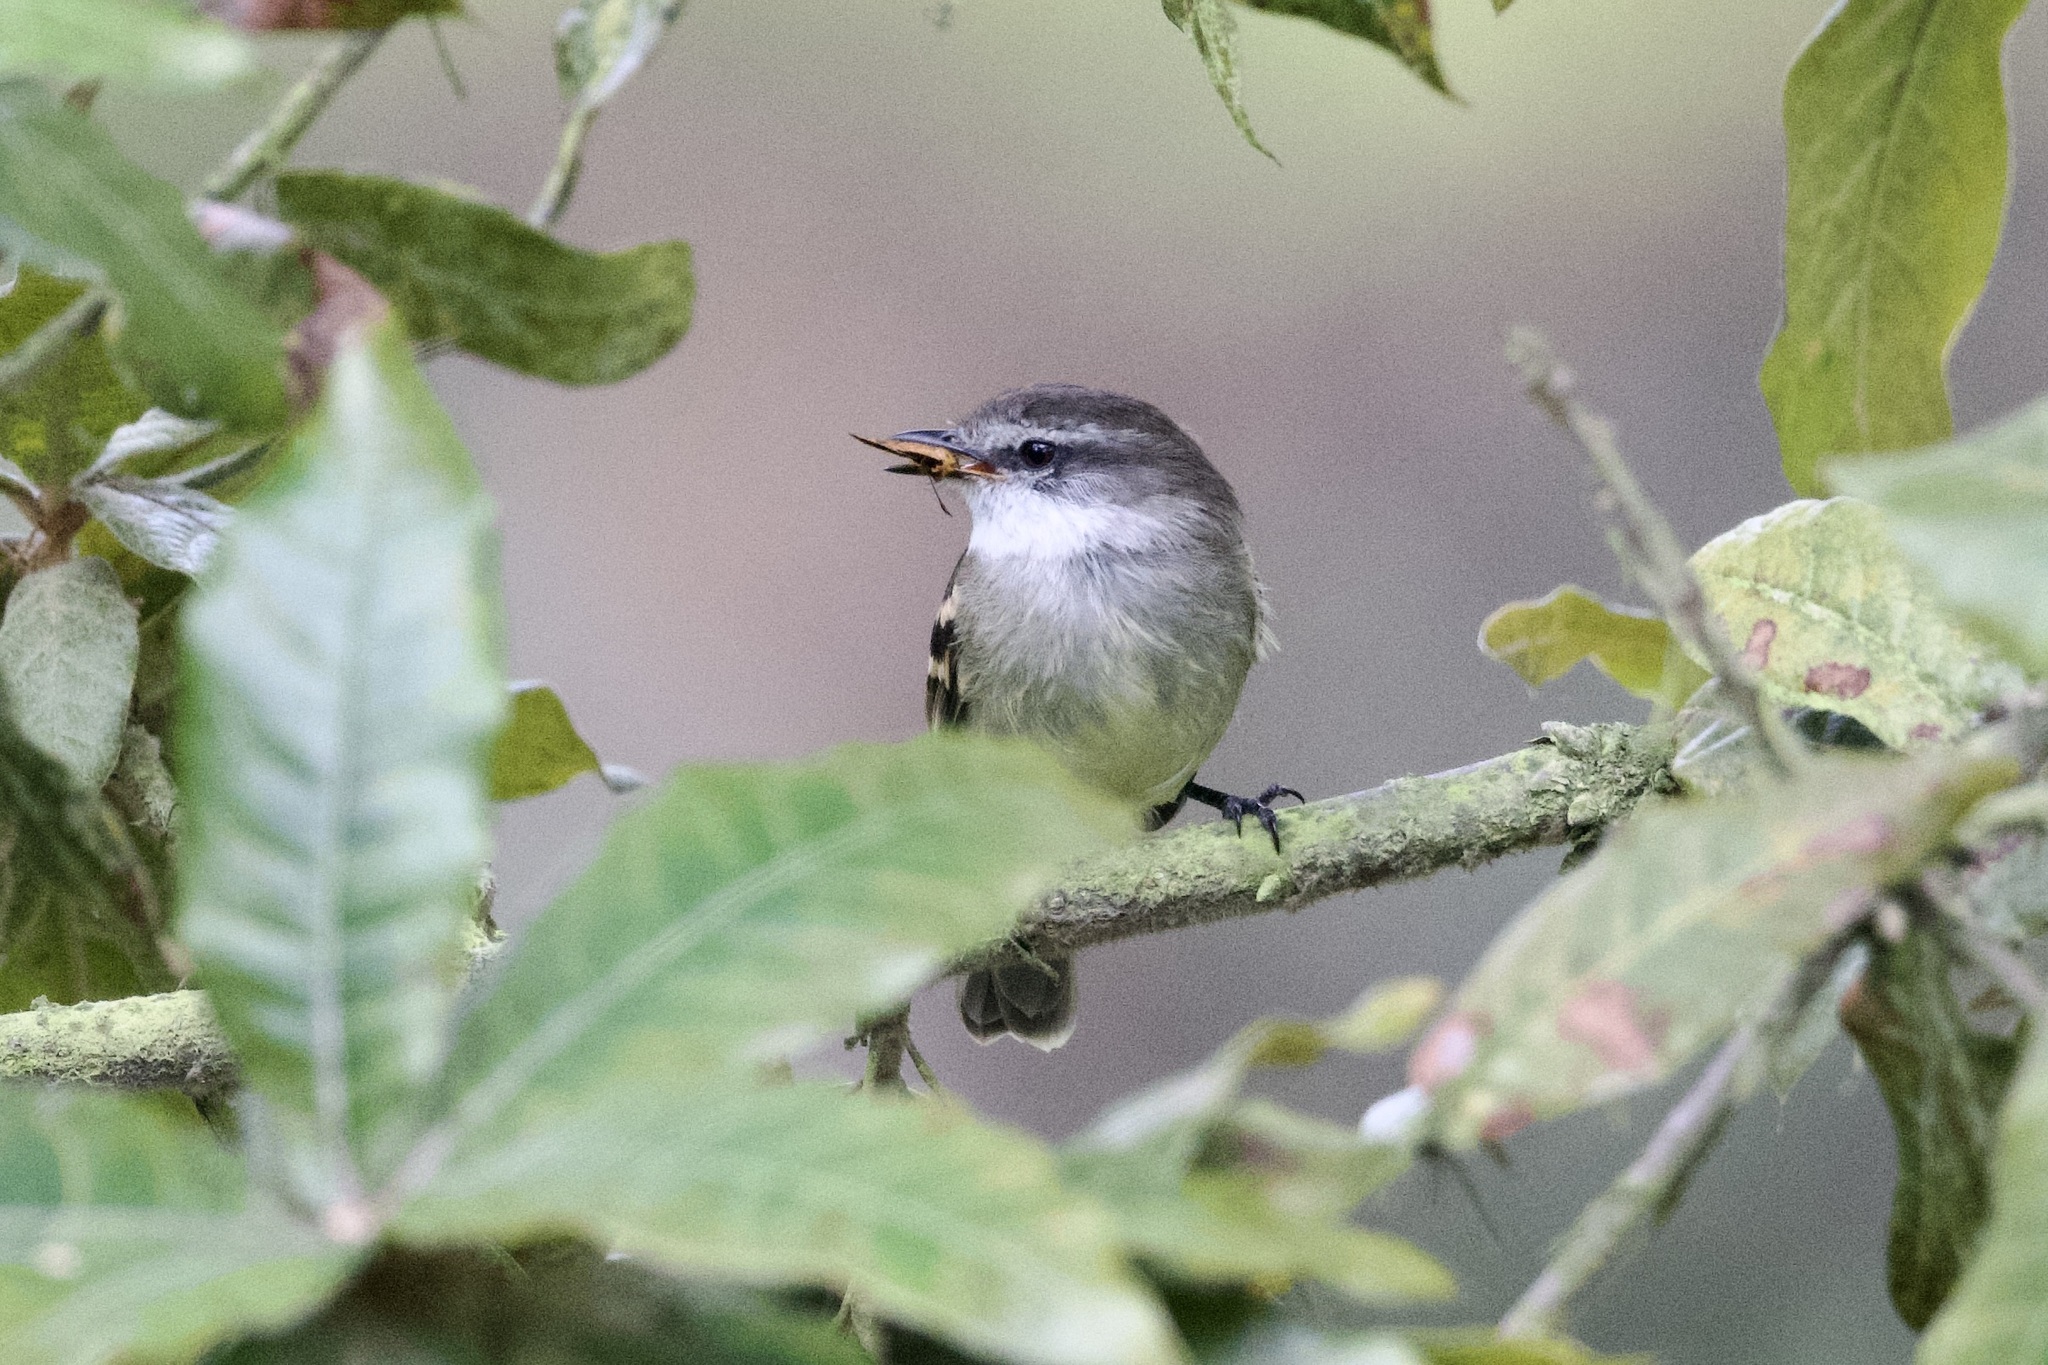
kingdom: Animalia
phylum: Chordata
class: Aves
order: Passeriformes
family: Tyrannidae
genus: Mecocerculus
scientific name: Mecocerculus leucophrys
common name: White-throated tyrannulet
